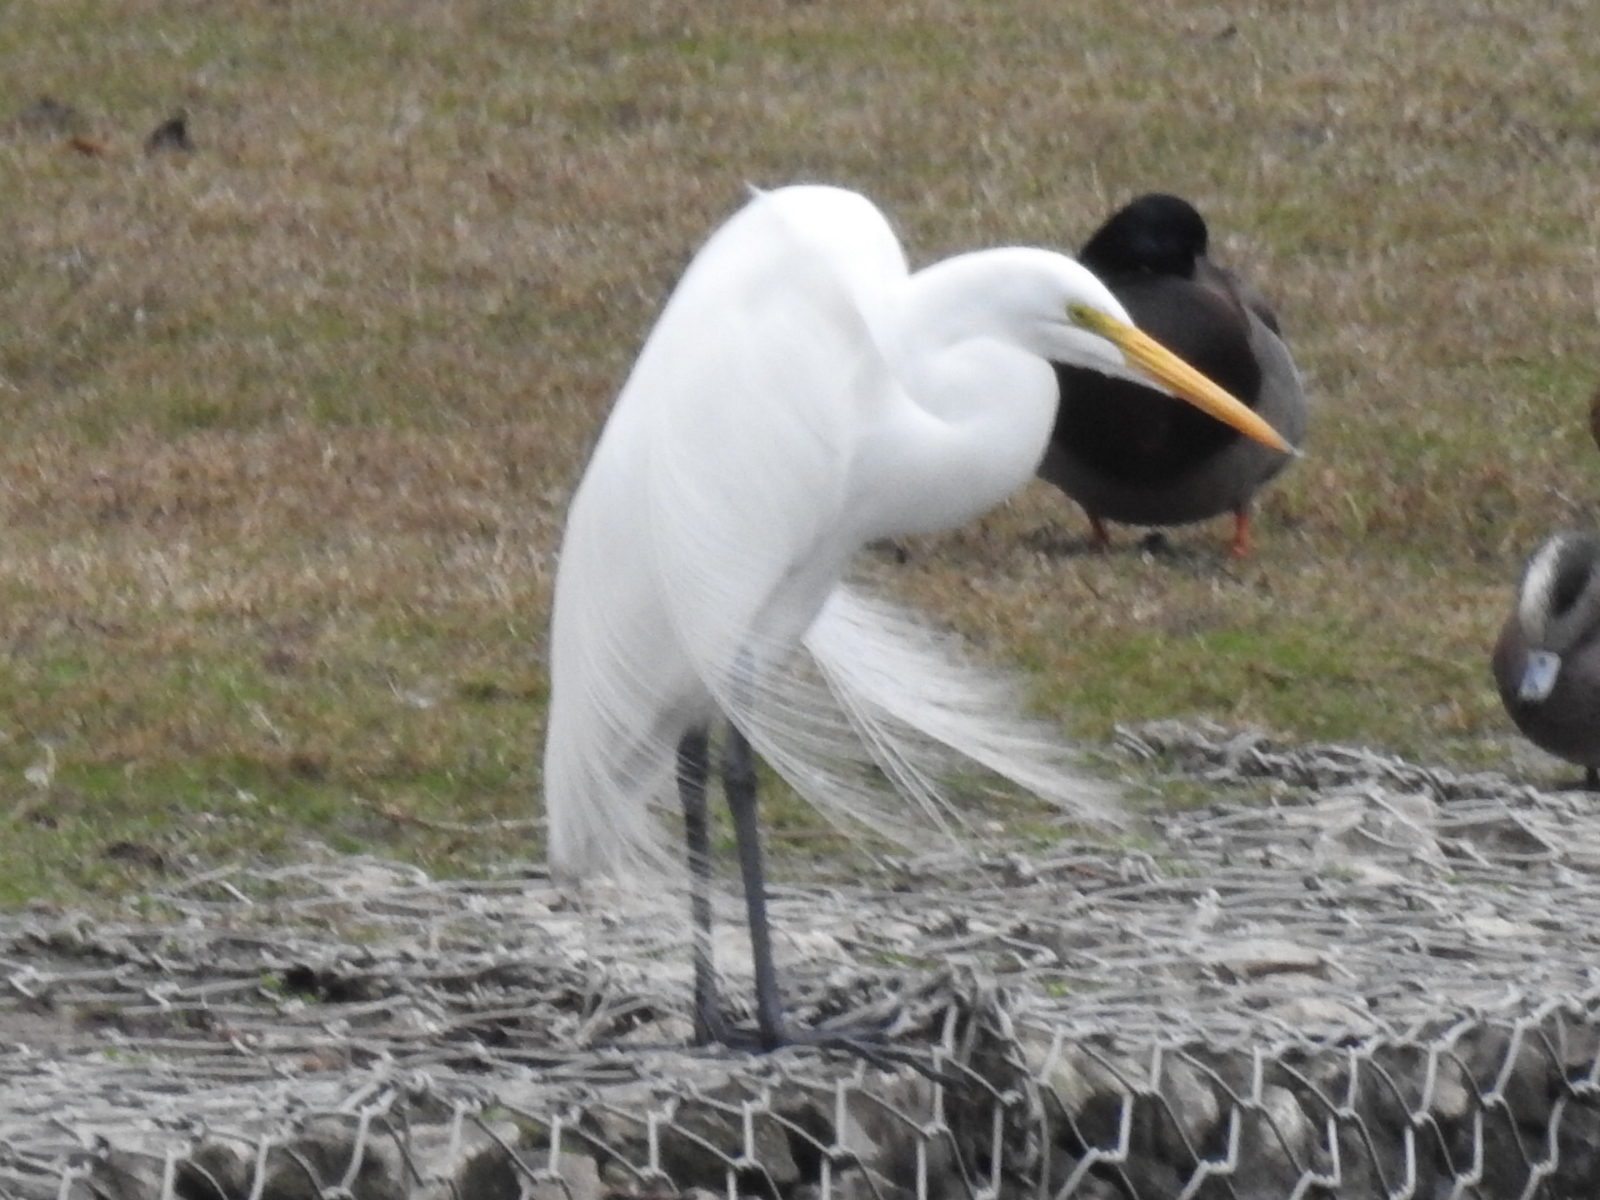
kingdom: Animalia
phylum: Chordata
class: Aves
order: Pelecaniformes
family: Ardeidae
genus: Ardea
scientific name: Ardea alba
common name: Great egret
